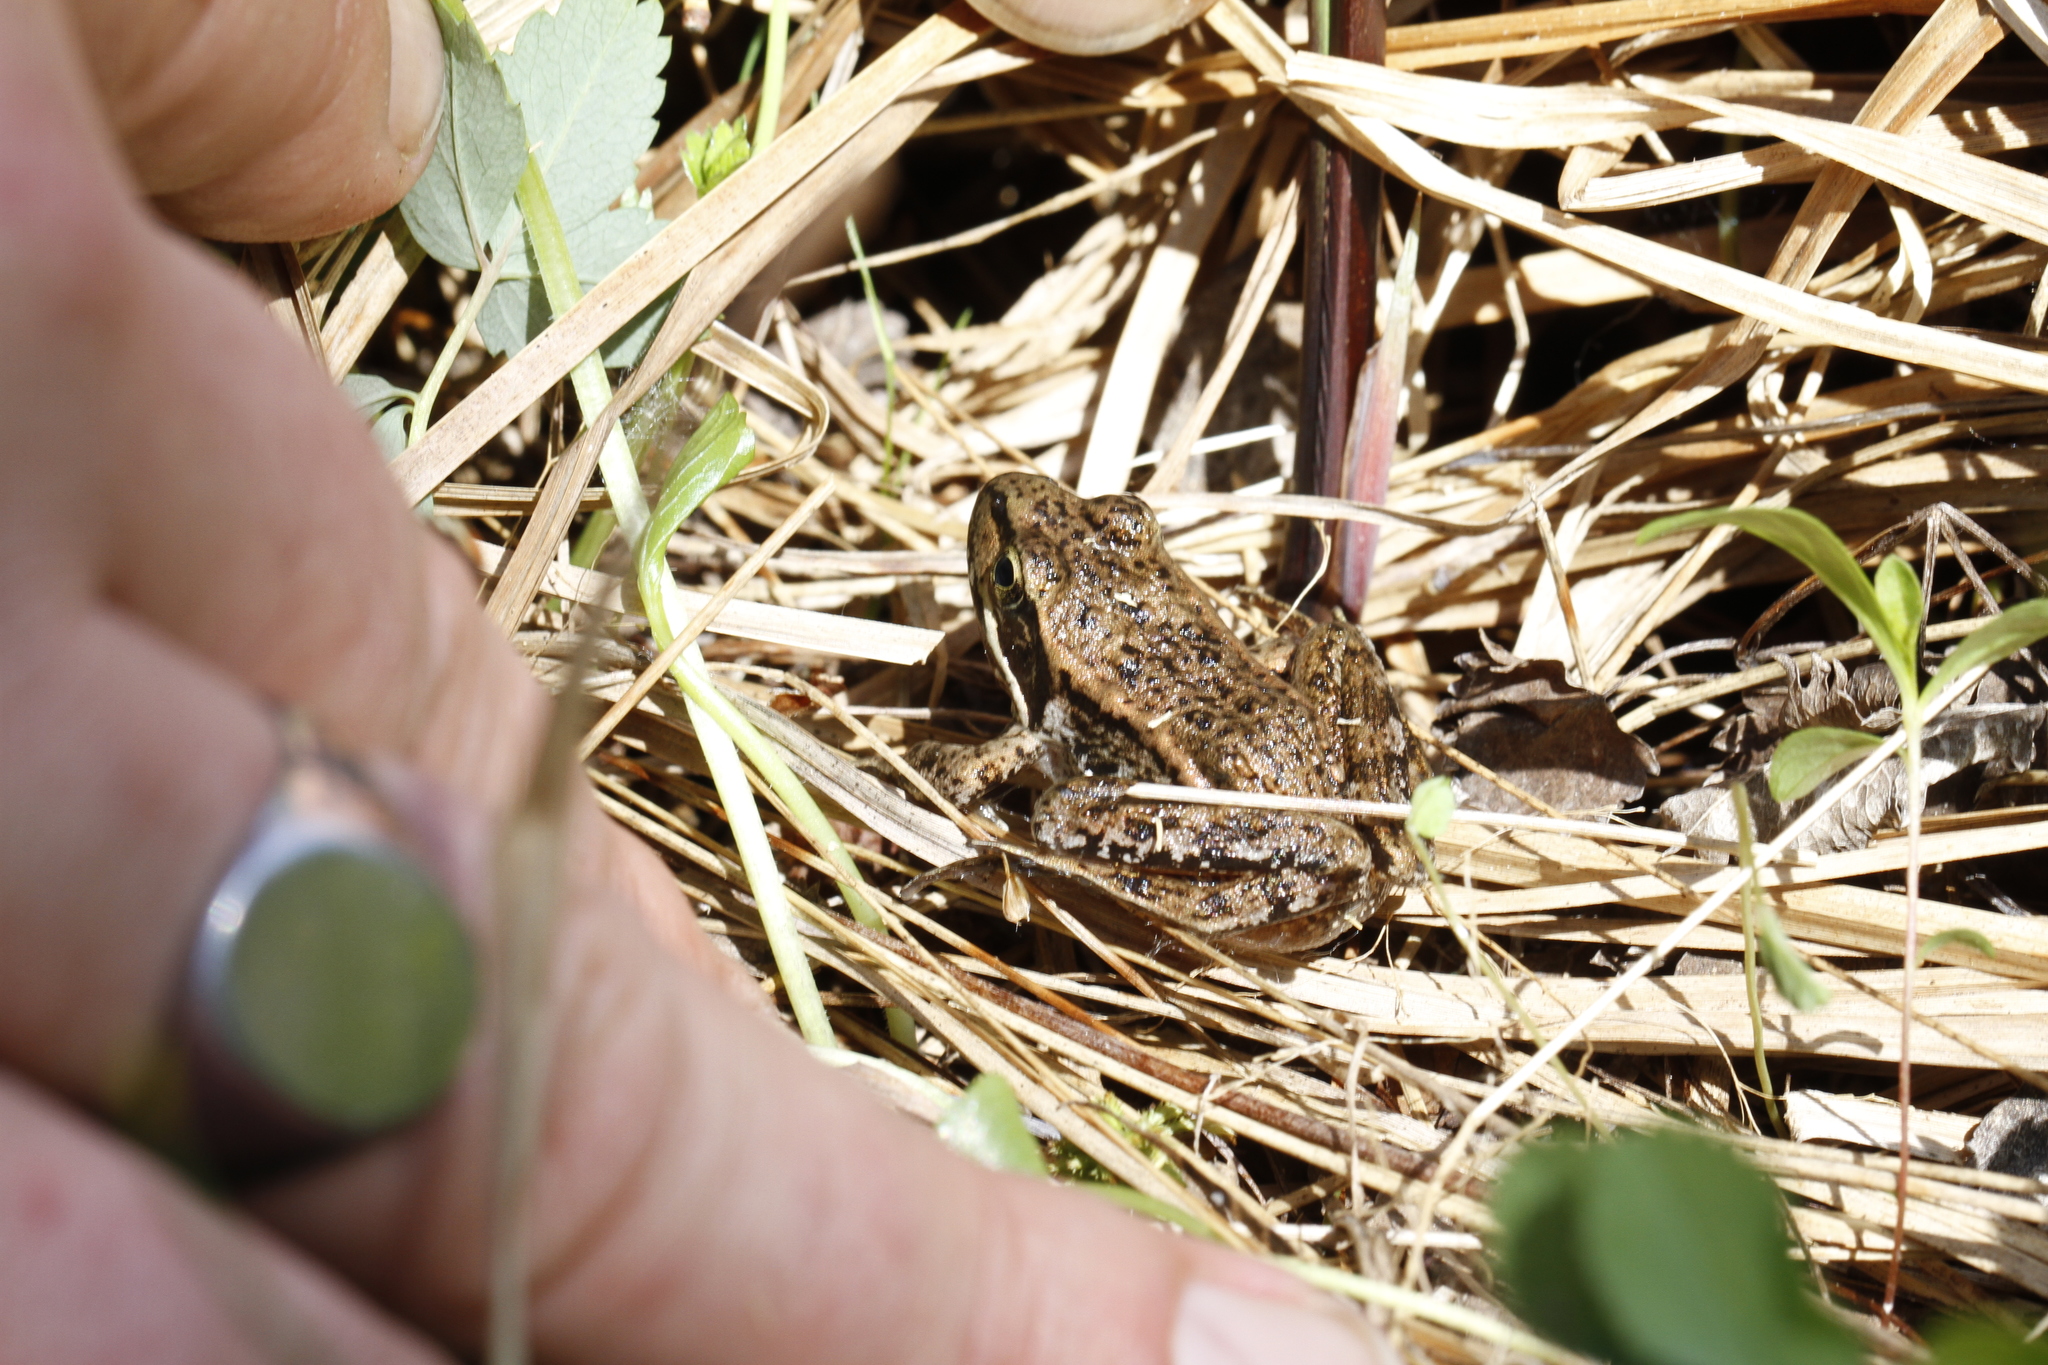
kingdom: Animalia
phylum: Chordata
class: Amphibia
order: Anura
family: Ranidae
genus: Rana
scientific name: Rana aurora
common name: Red-legged frog
